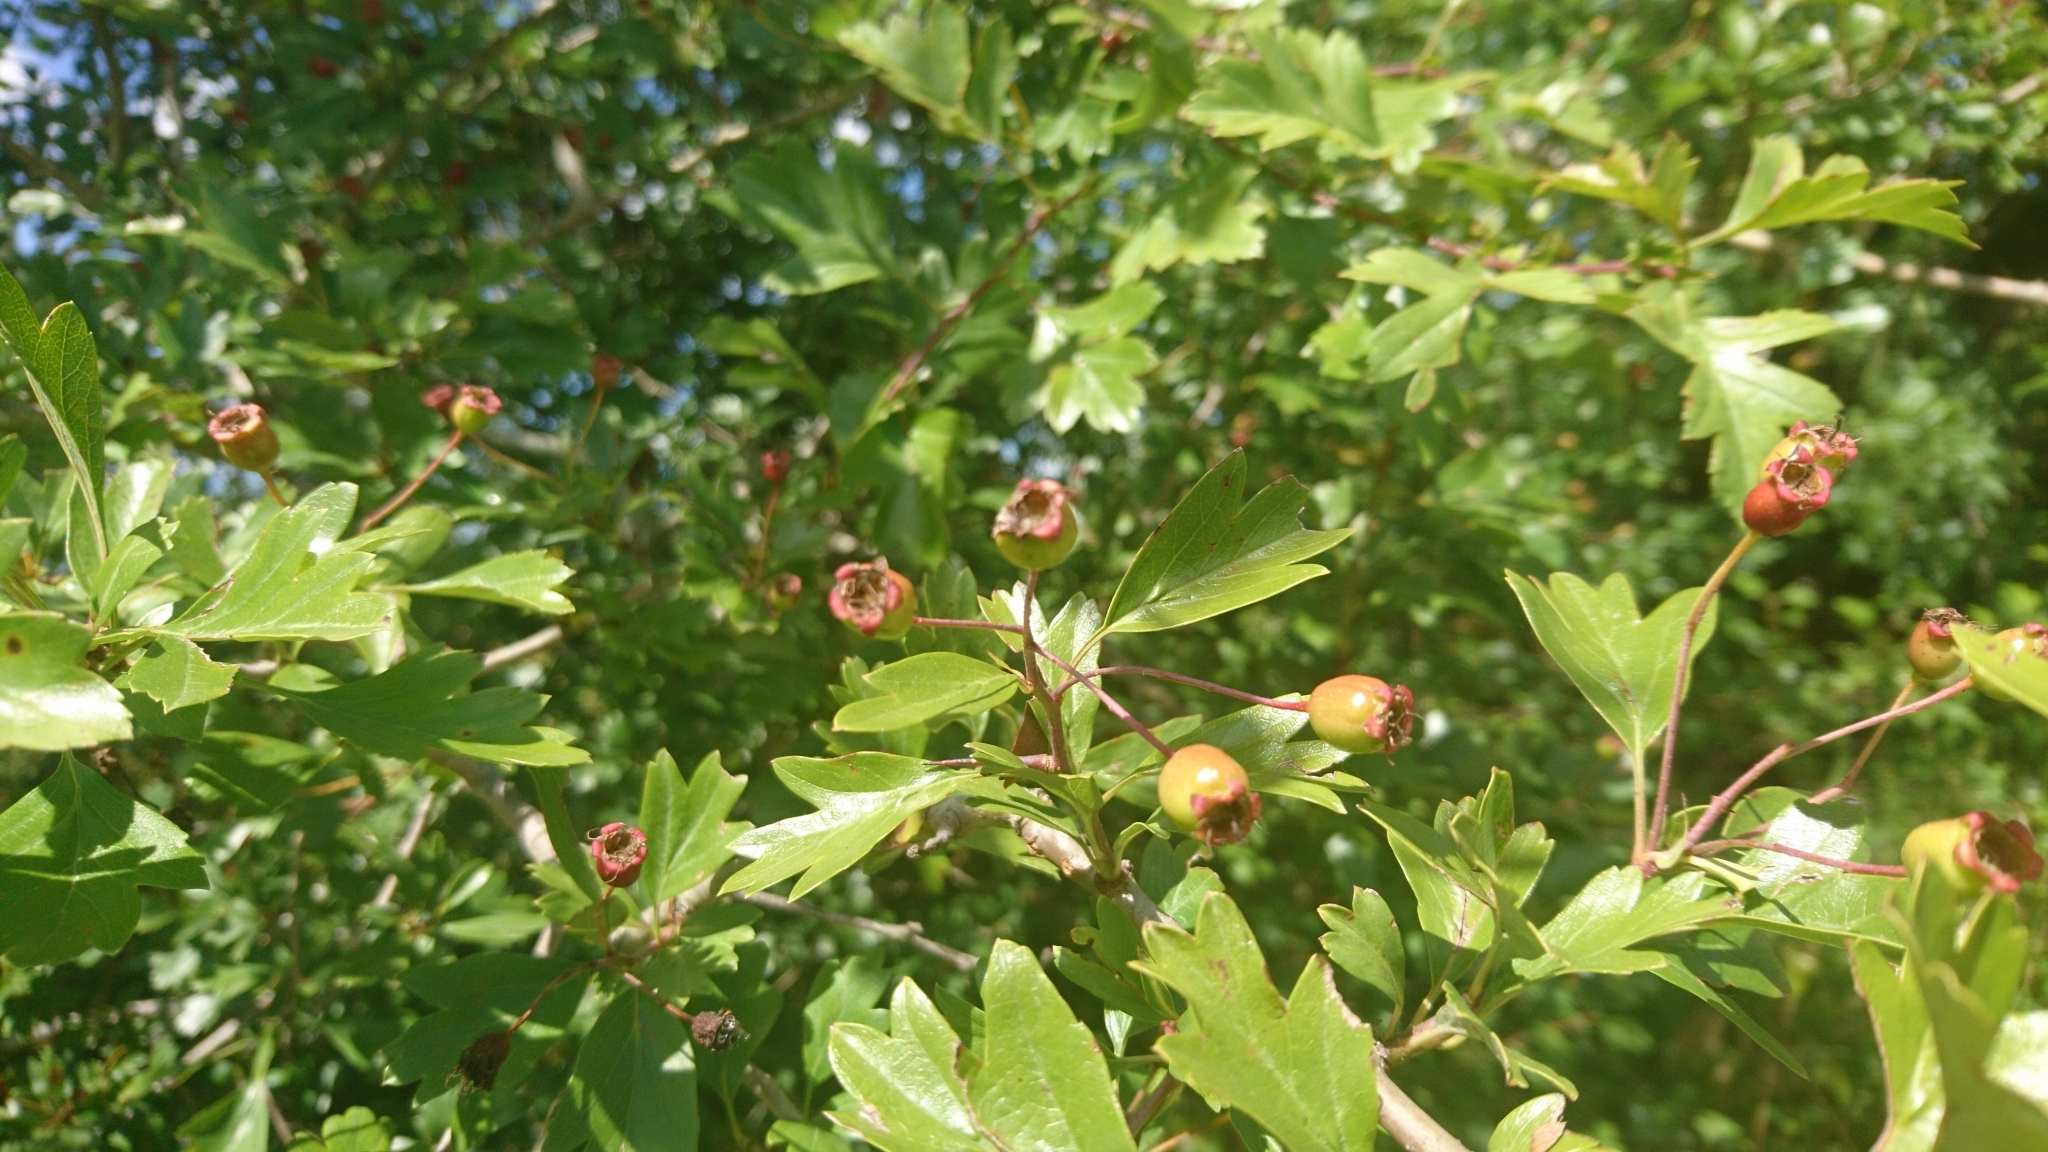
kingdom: Plantae
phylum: Tracheophyta
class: Magnoliopsida
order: Rosales
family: Rosaceae
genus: Crataegus
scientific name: Crataegus monogyna
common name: Hawthorn
